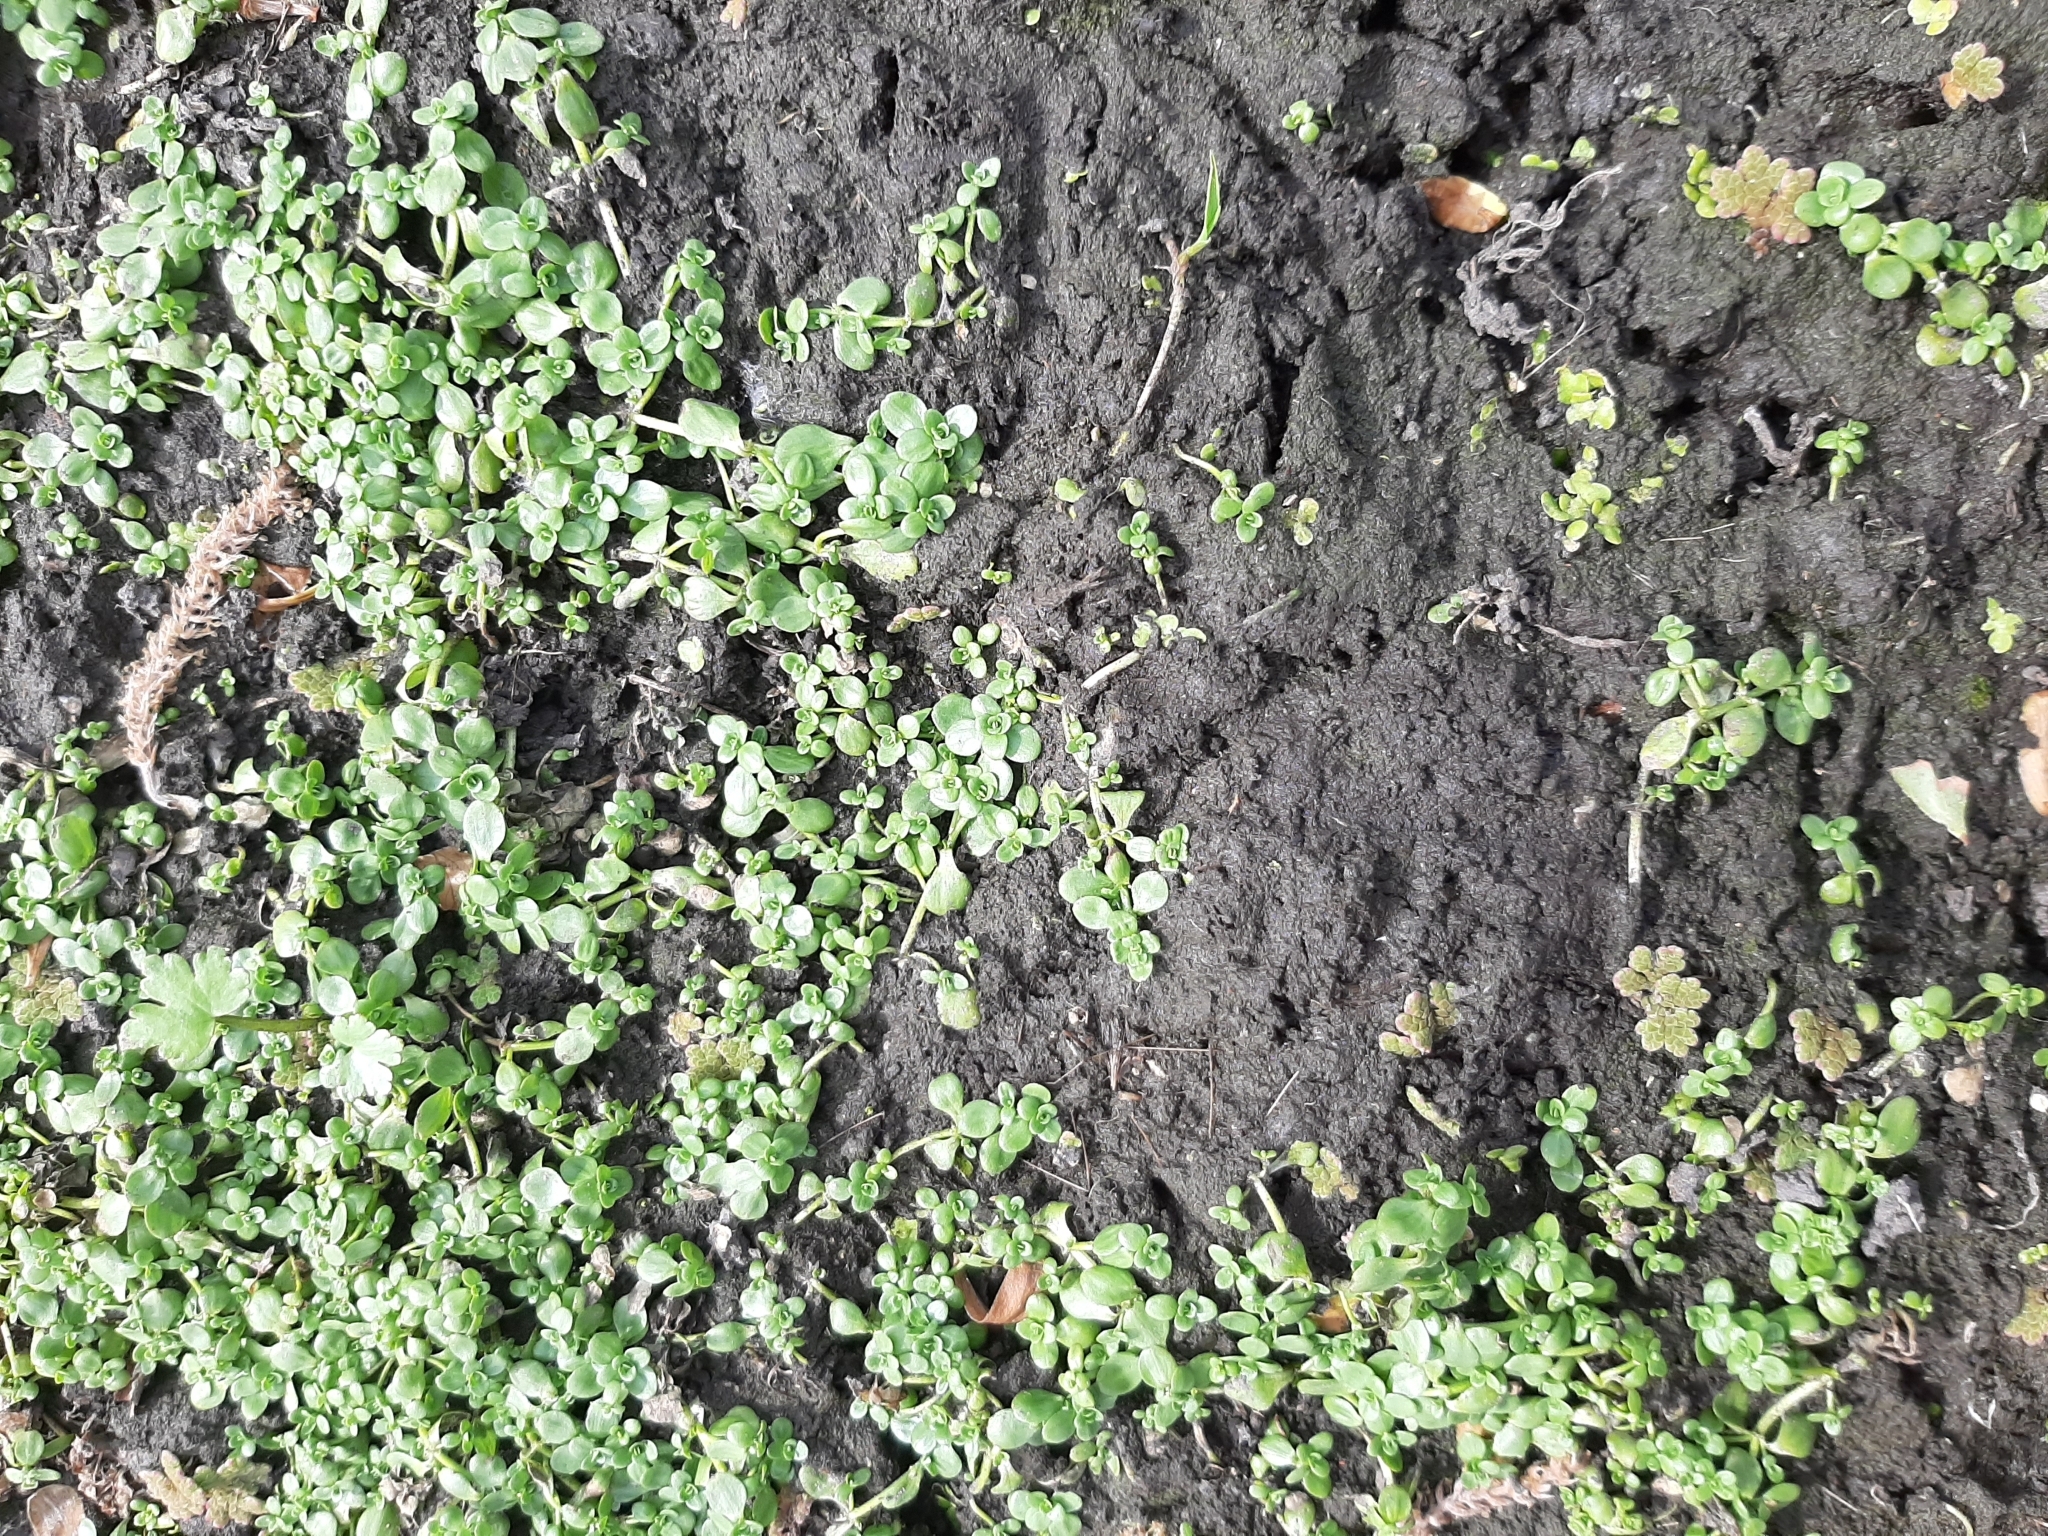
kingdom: Plantae
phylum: Tracheophyta
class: Magnoliopsida
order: Lamiales
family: Plantaginaceae
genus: Callitriche
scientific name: Callitriche stagnalis
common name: Common water-starwort
